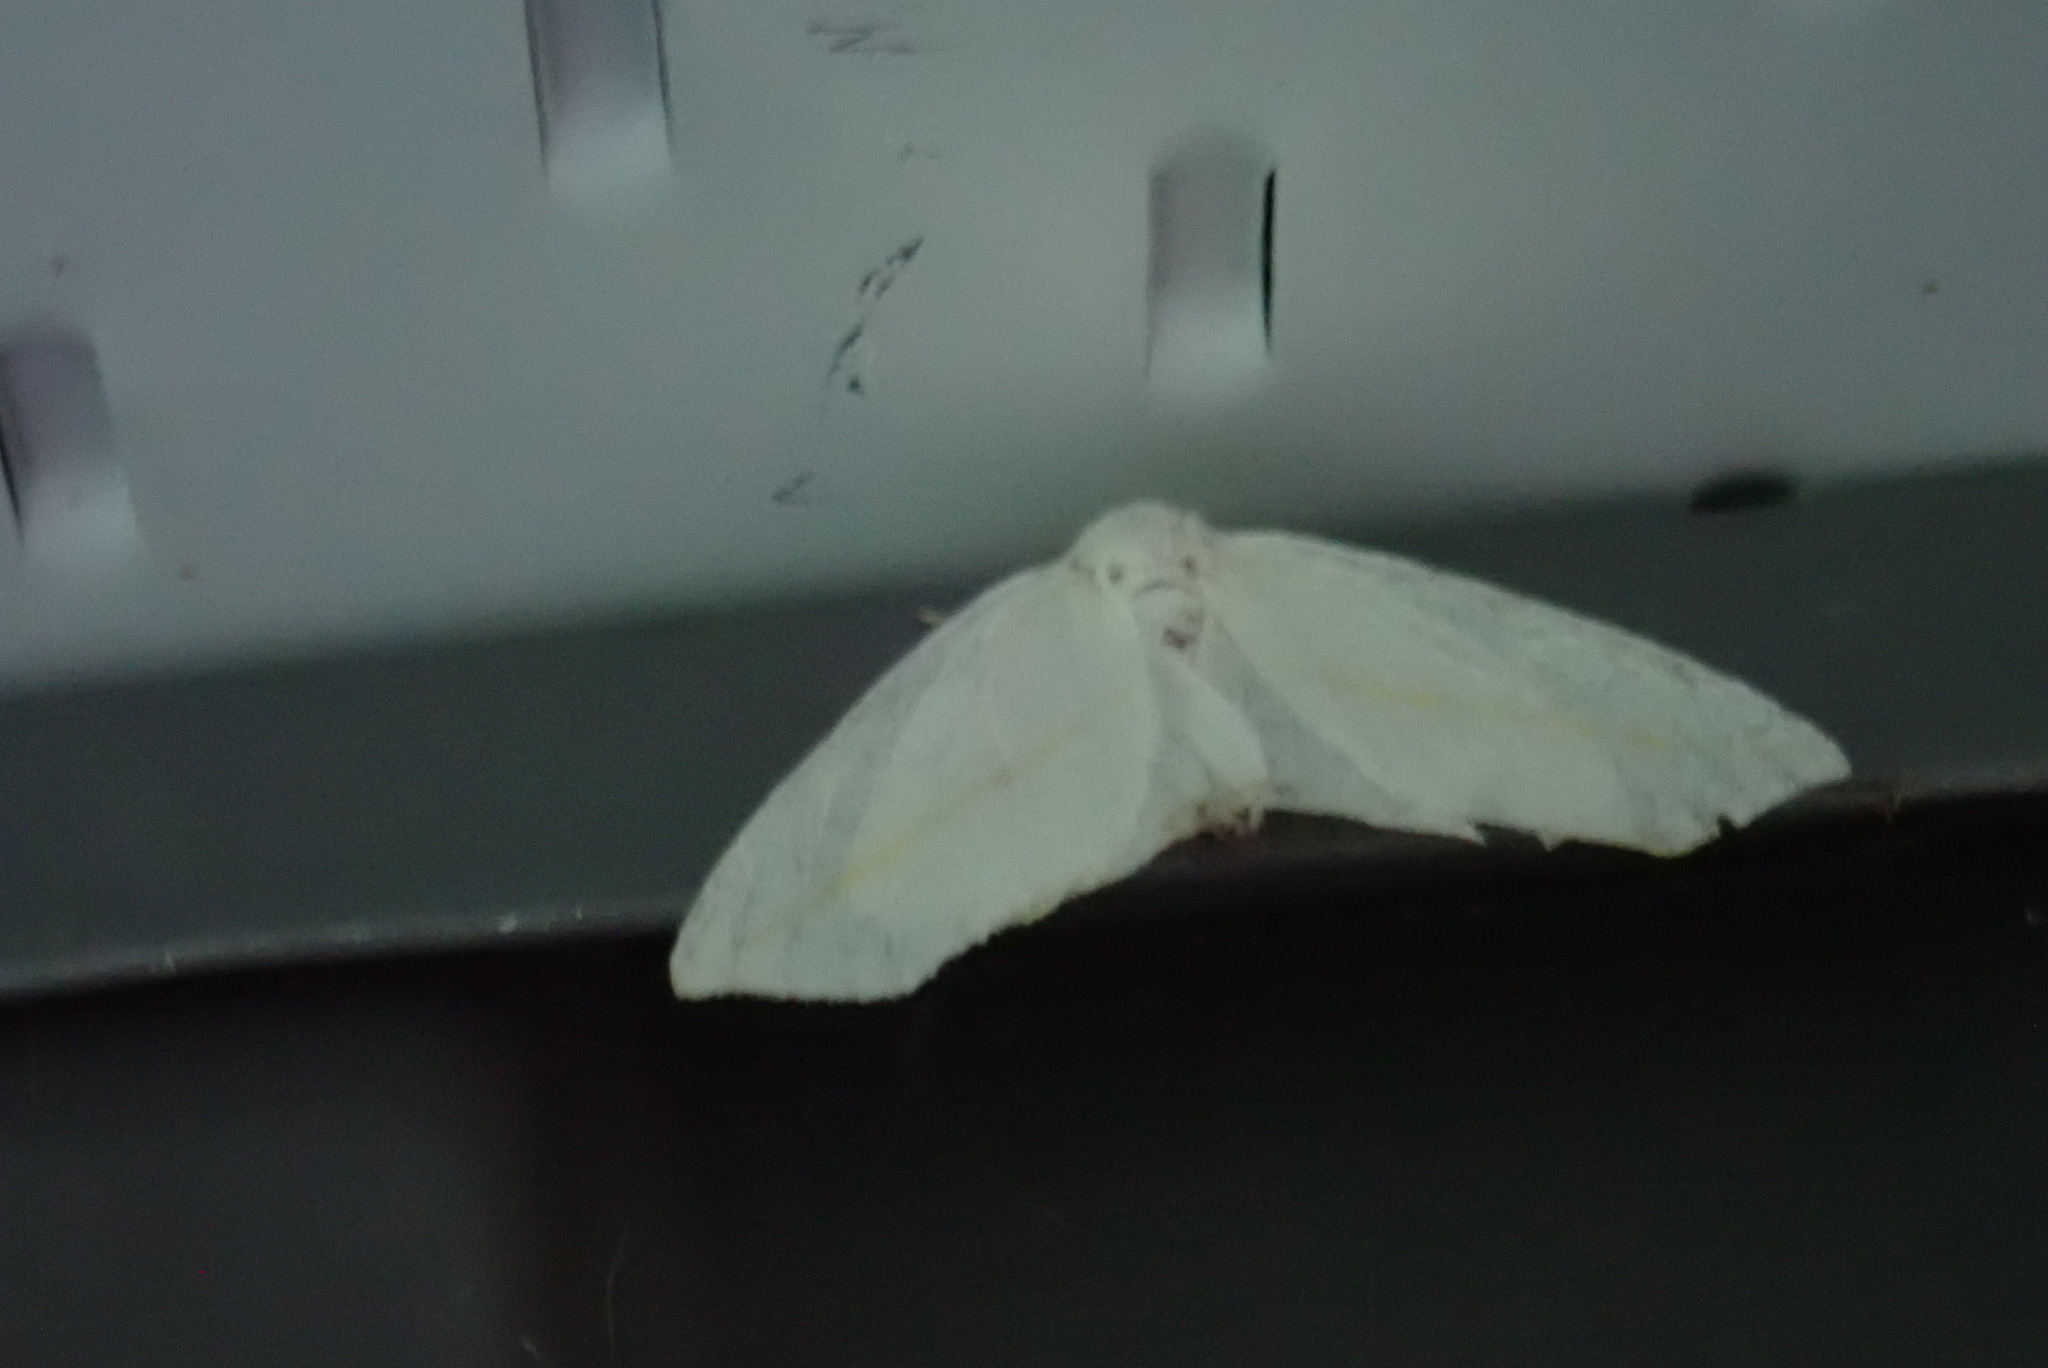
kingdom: Animalia
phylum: Arthropoda
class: Insecta
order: Lepidoptera
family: Geometridae
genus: Tetracis
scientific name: Tetracis cachexiata
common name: White slant-line
